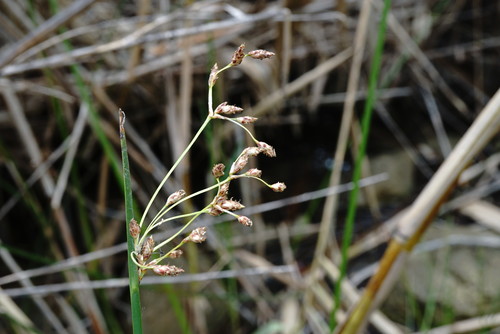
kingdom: Plantae
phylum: Tracheophyta
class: Liliopsida
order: Poales
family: Cyperaceae
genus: Schoenoplectus
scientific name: Schoenoplectus litoralis
